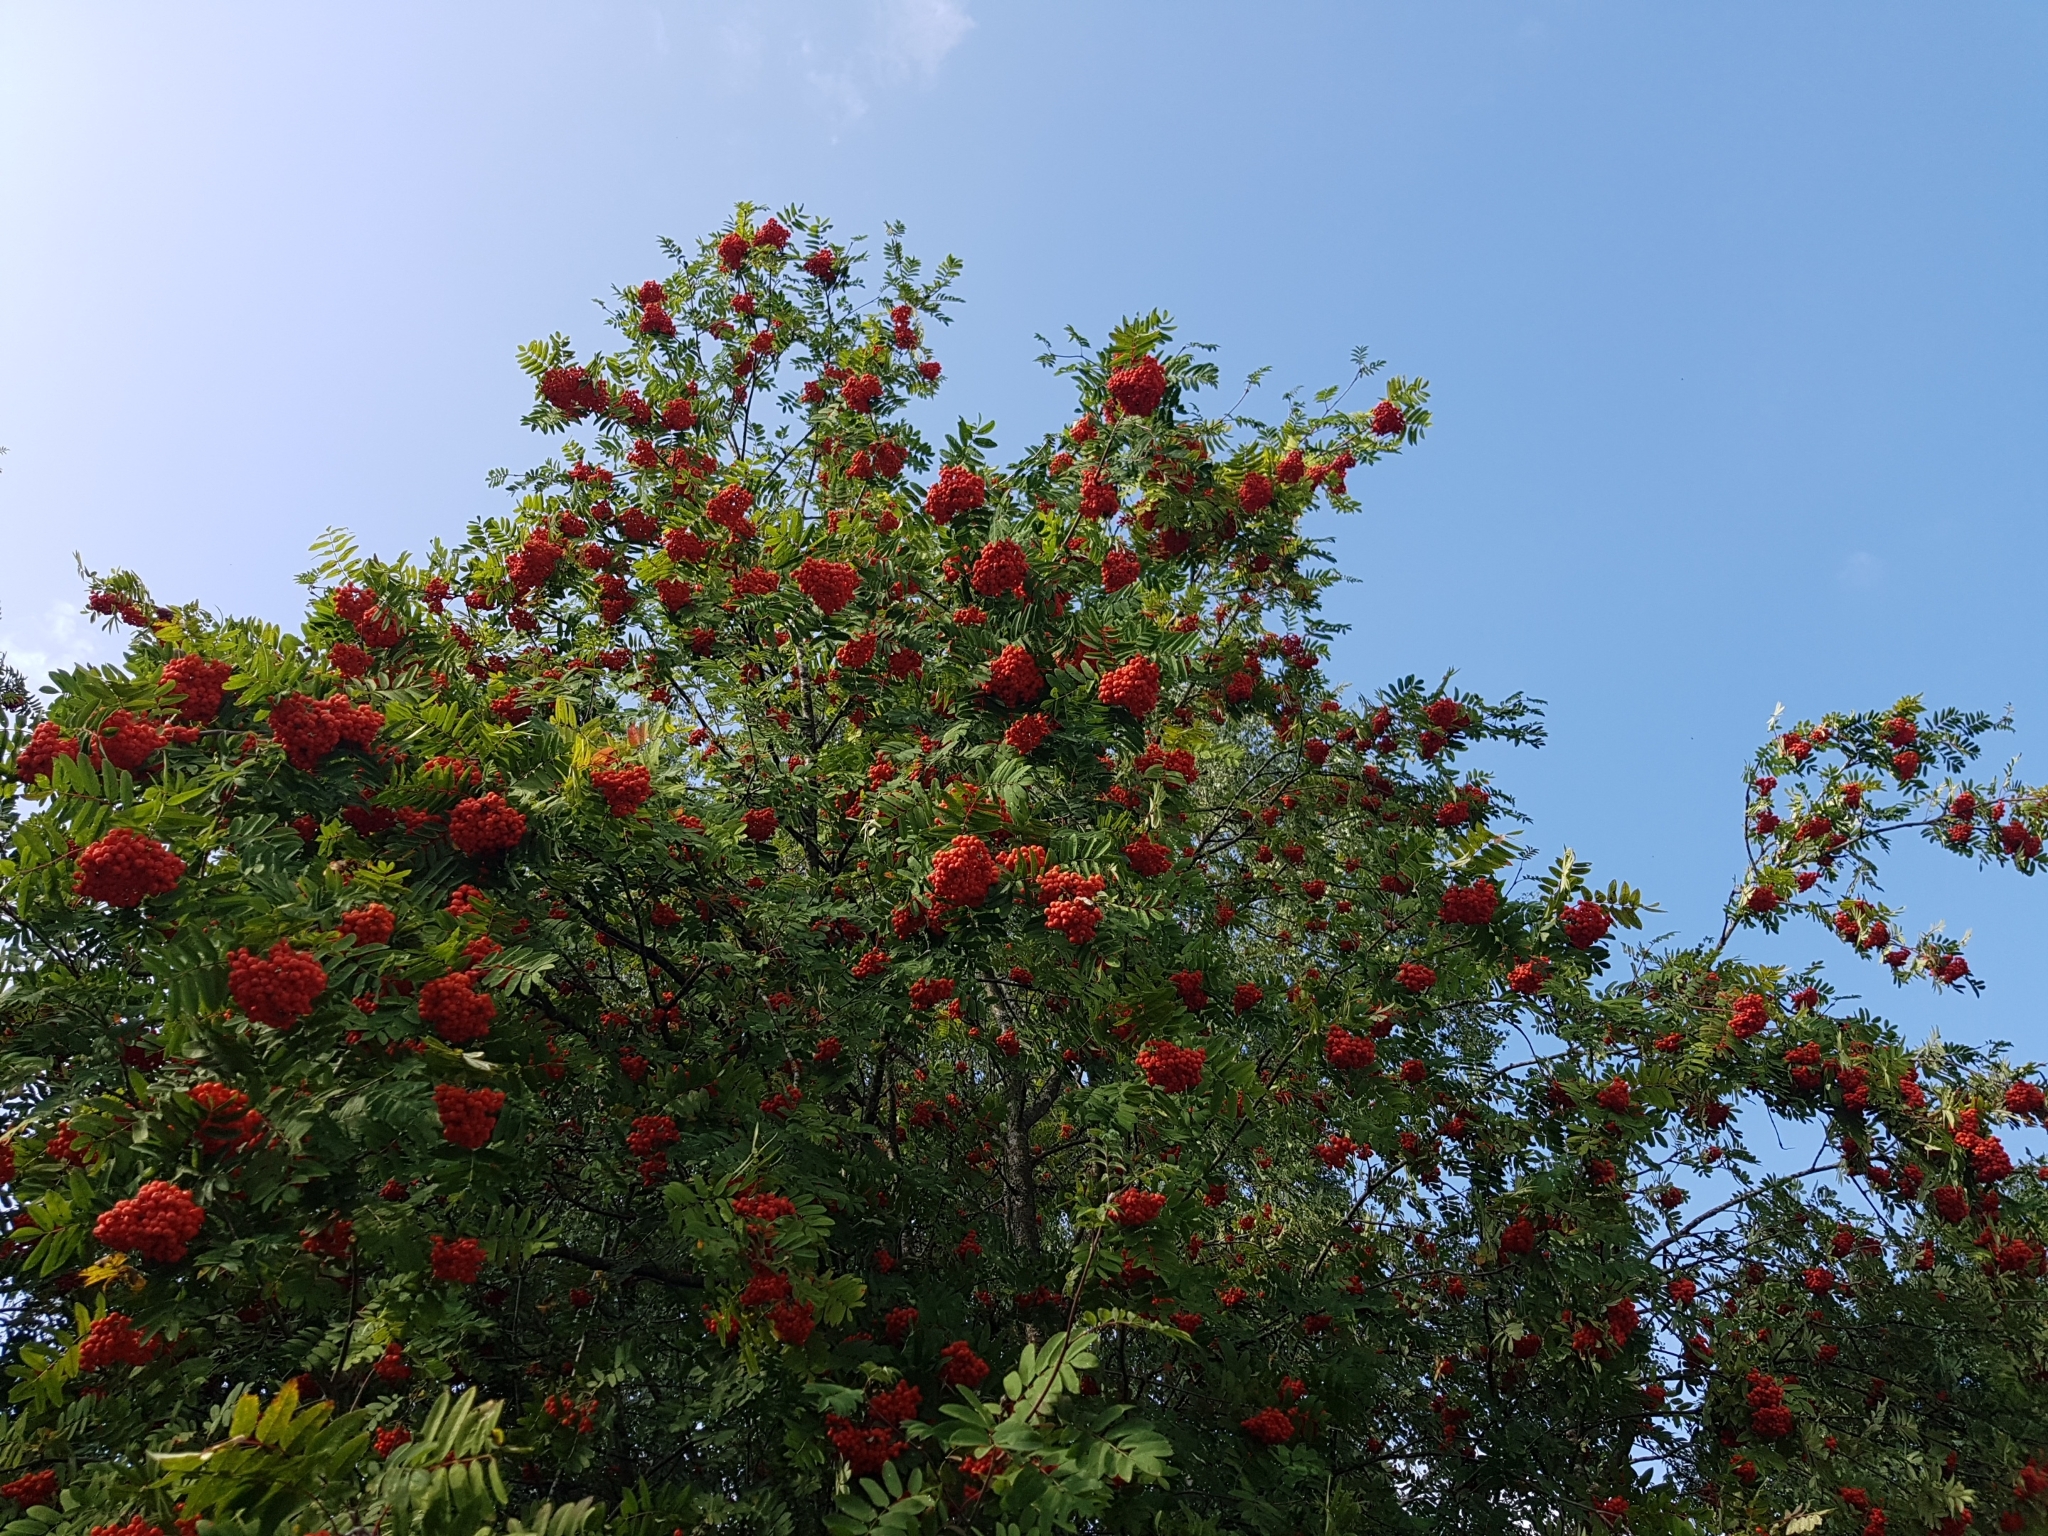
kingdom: Plantae
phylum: Tracheophyta
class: Magnoliopsida
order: Rosales
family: Rosaceae
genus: Sorbus
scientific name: Sorbus aucuparia
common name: Rowan
